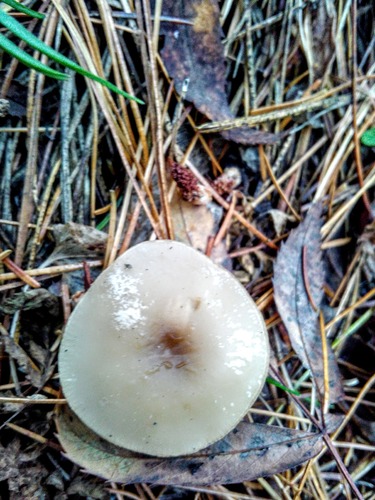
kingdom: Fungi
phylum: Basidiomycota
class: Agaricomycetes
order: Agaricales
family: Tricholomataceae
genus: Clitocybe
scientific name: Clitocybe
